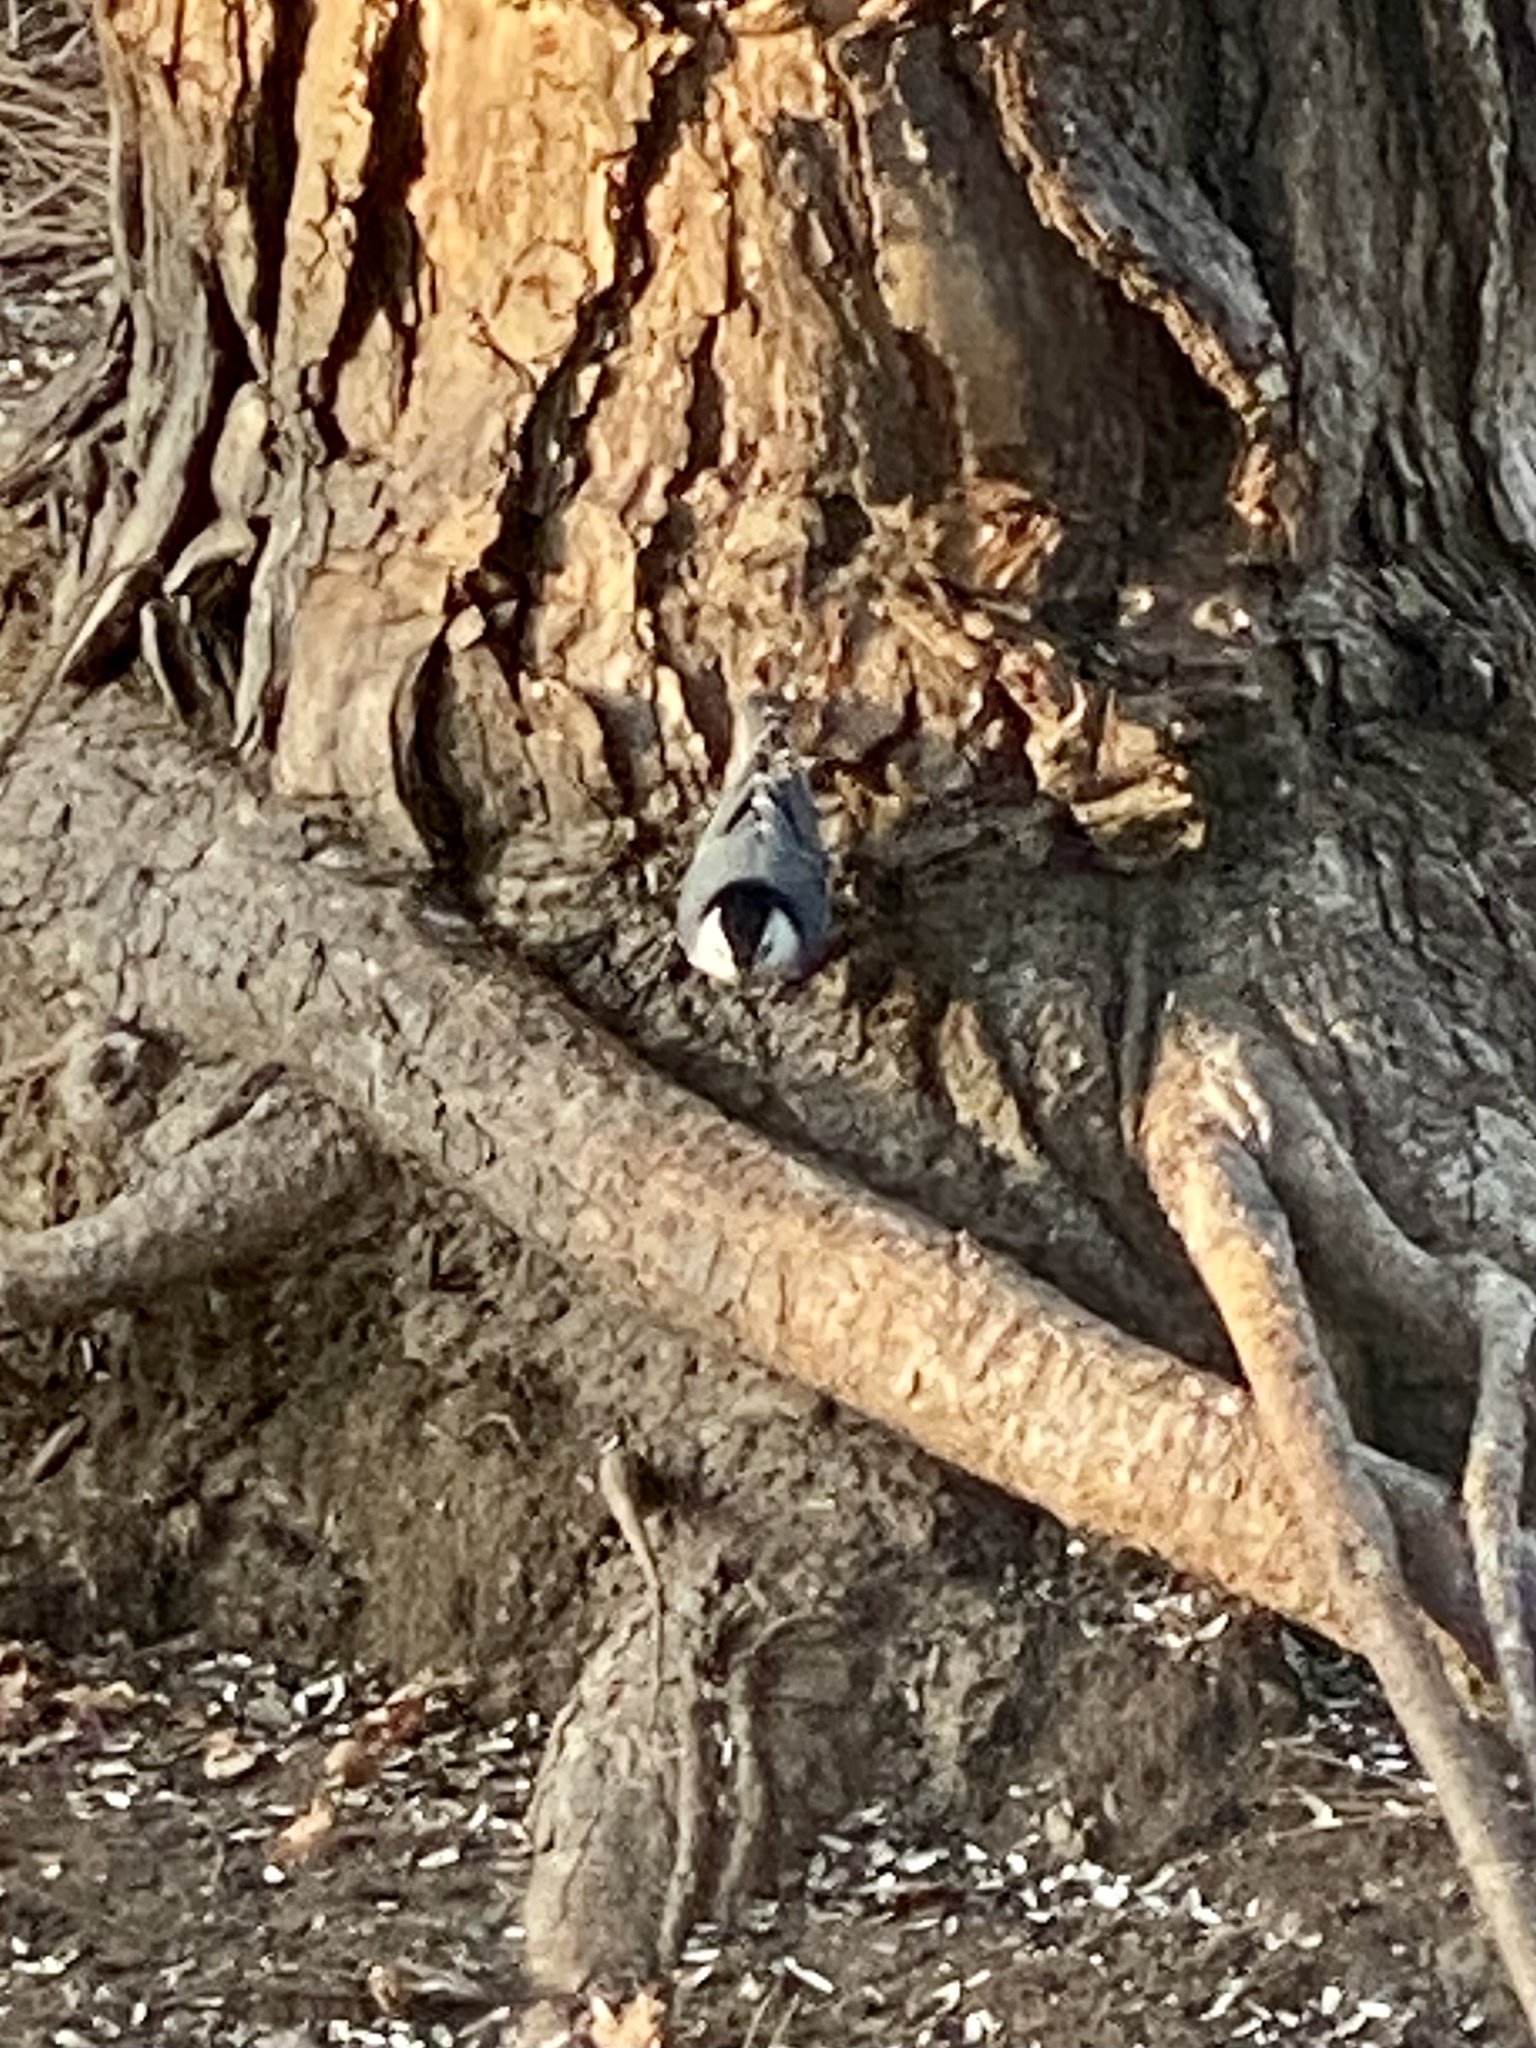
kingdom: Animalia
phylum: Chordata
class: Aves
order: Passeriformes
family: Sittidae
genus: Sitta
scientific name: Sitta carolinensis
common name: White-breasted nuthatch
